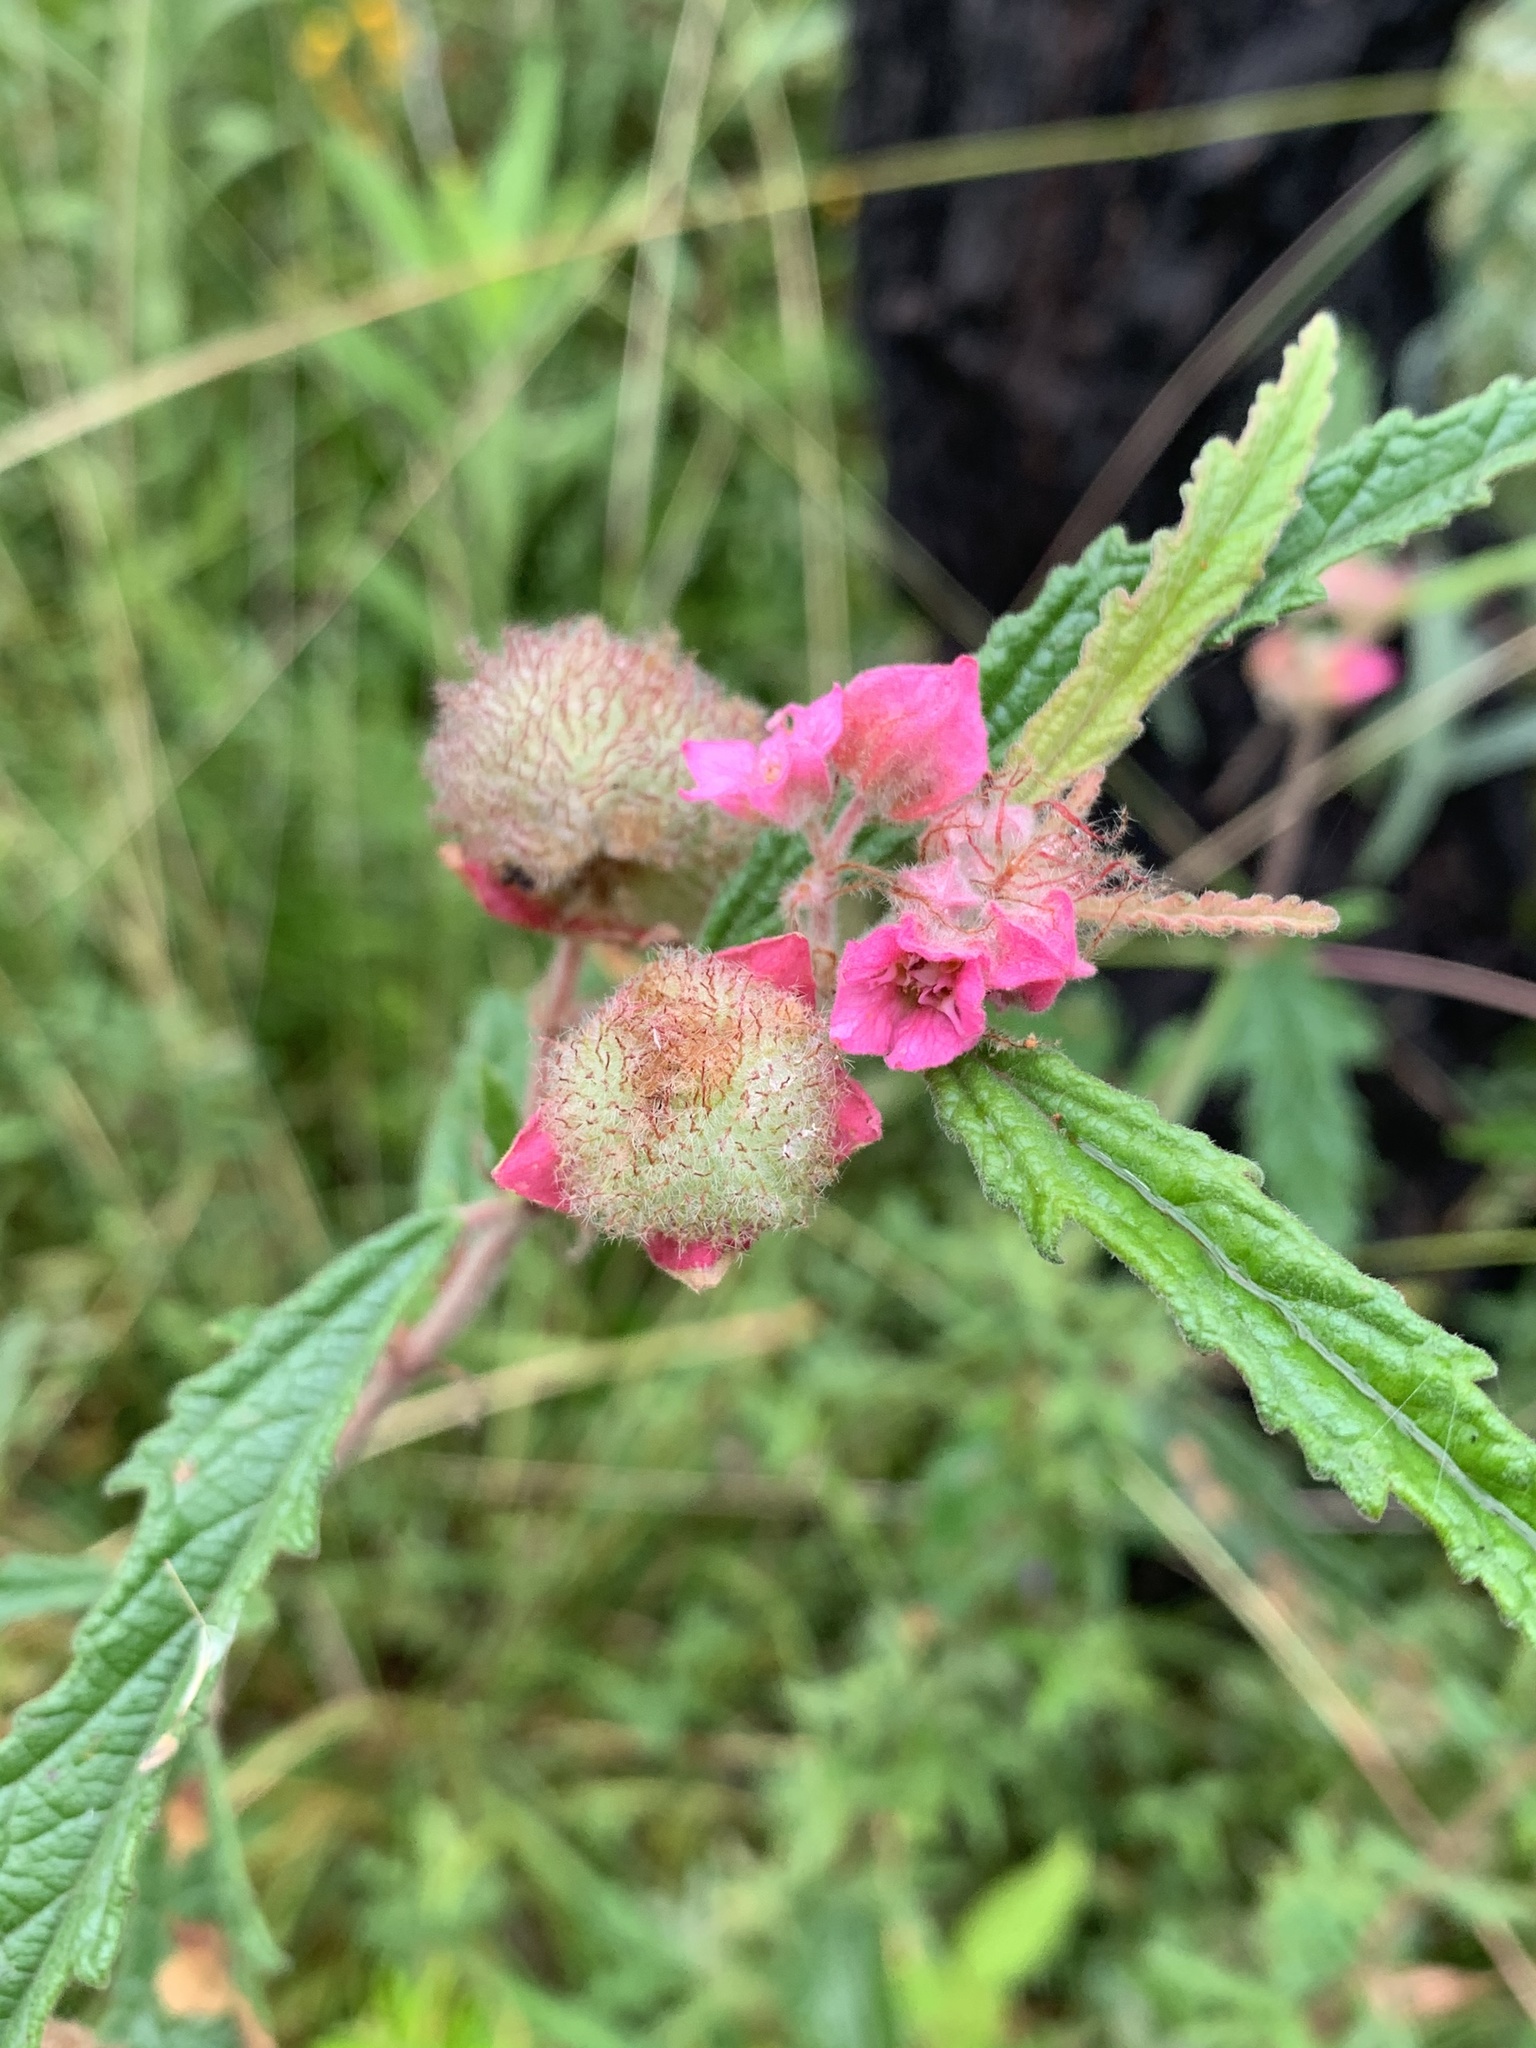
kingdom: Plantae
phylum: Tracheophyta
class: Magnoliopsida
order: Malvales
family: Malvaceae
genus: Androcalva
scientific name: Androcalva rosea
